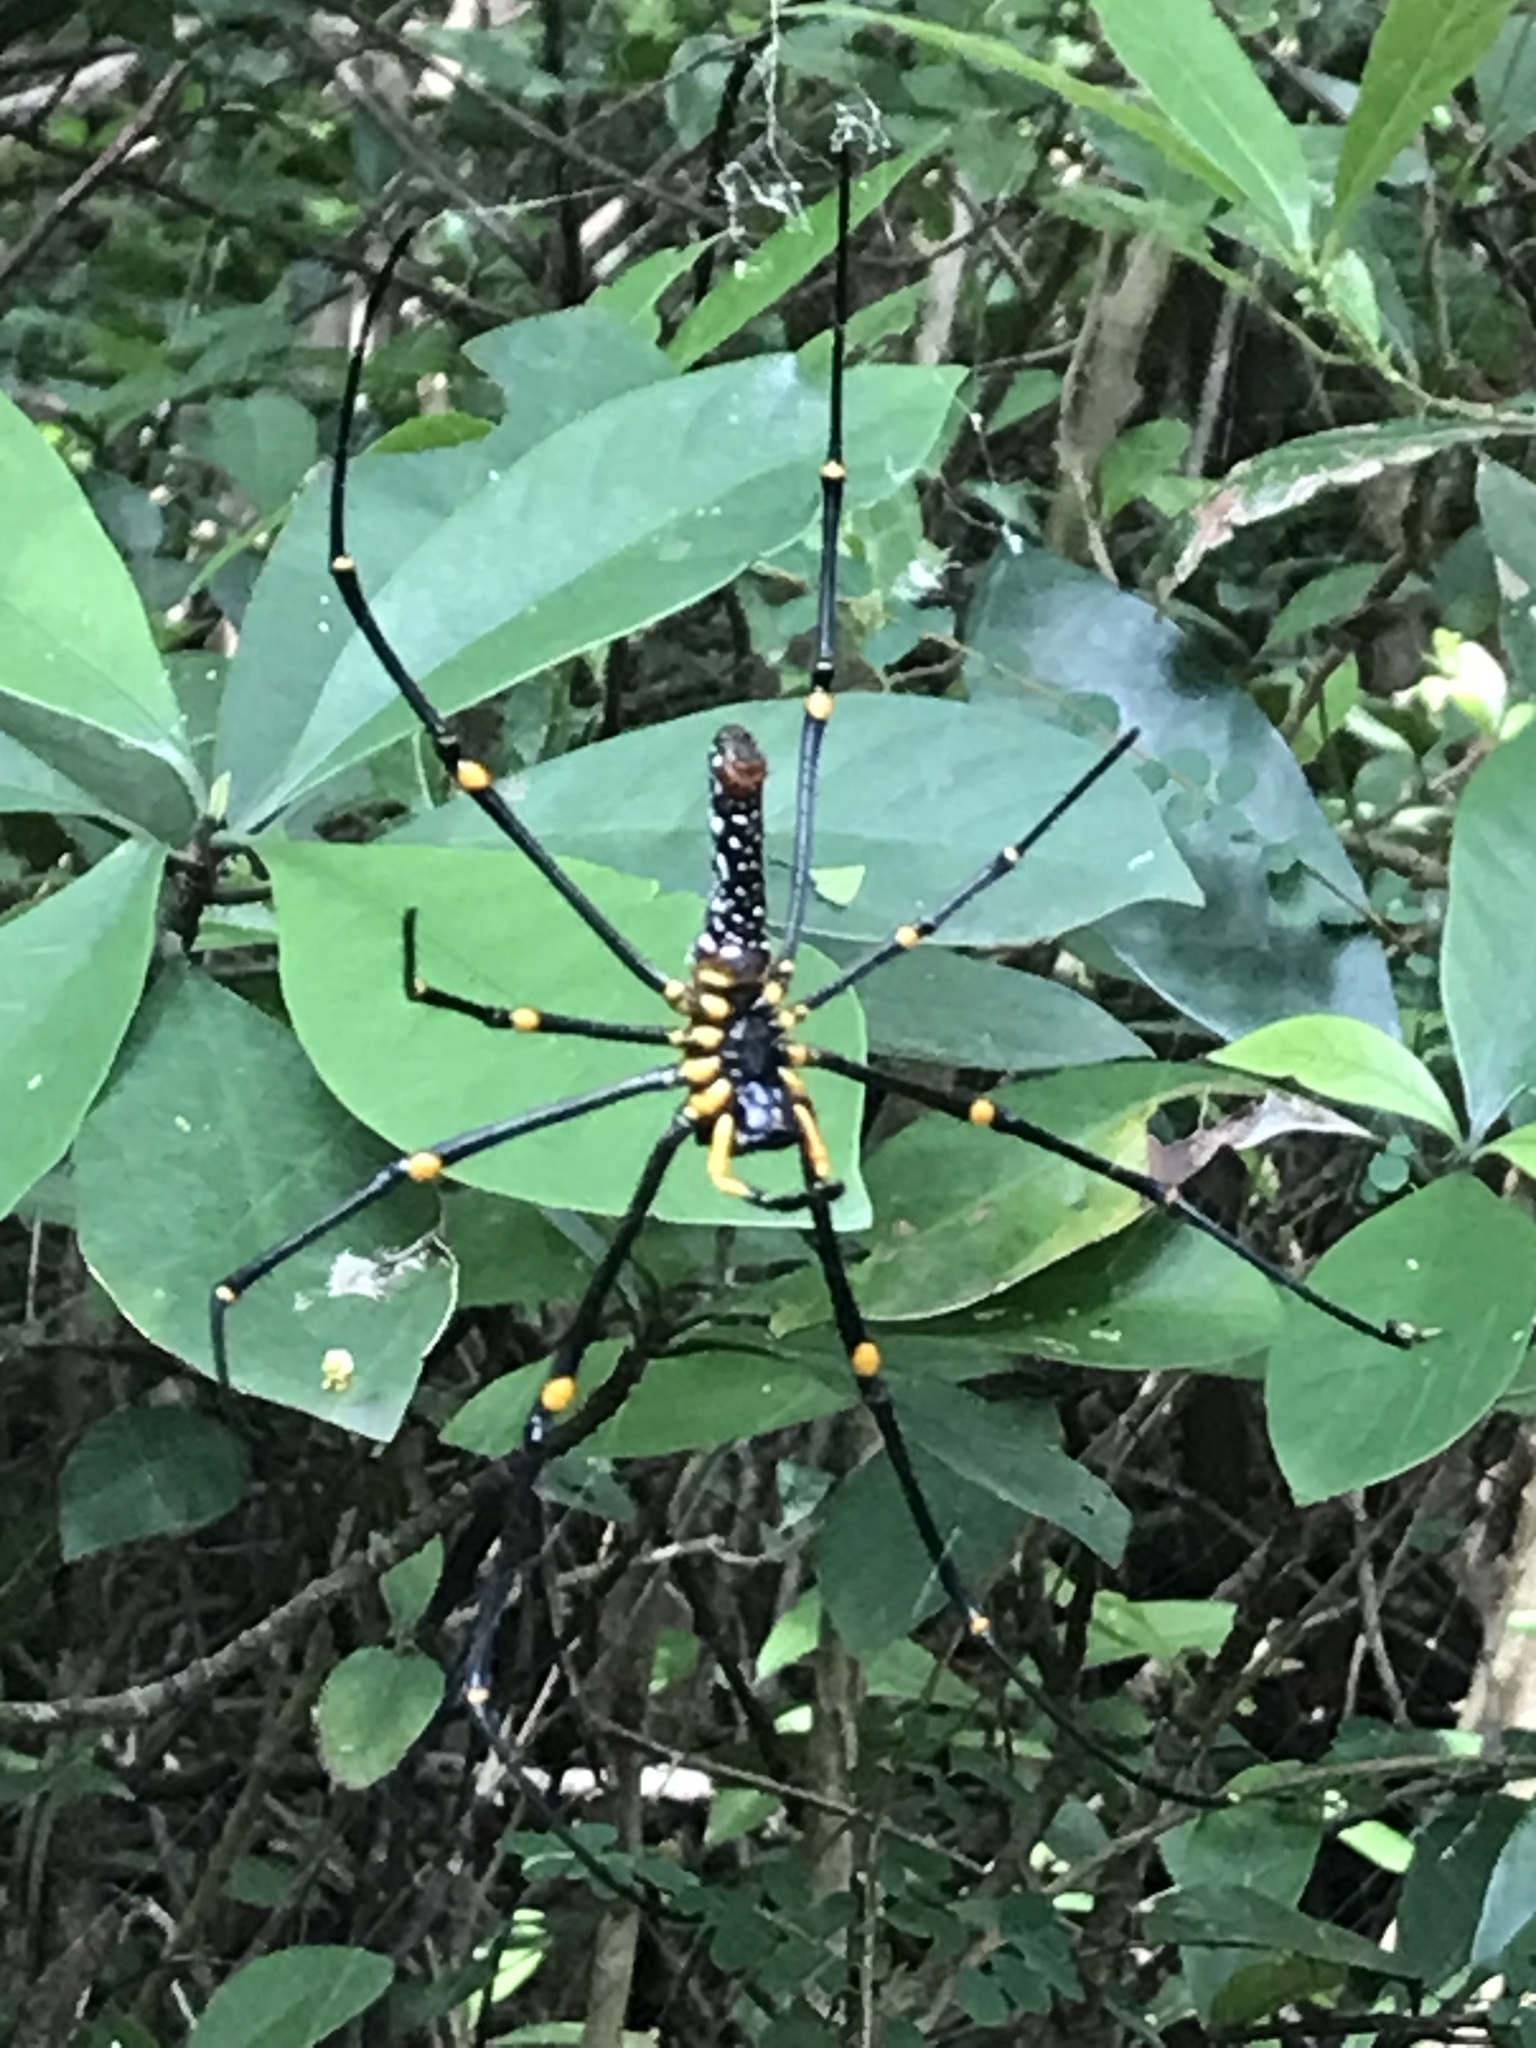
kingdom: Animalia
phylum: Arthropoda
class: Arachnida
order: Araneae
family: Araneidae
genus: Nephila
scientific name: Nephila pilipes
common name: Giant golden orb weaver
